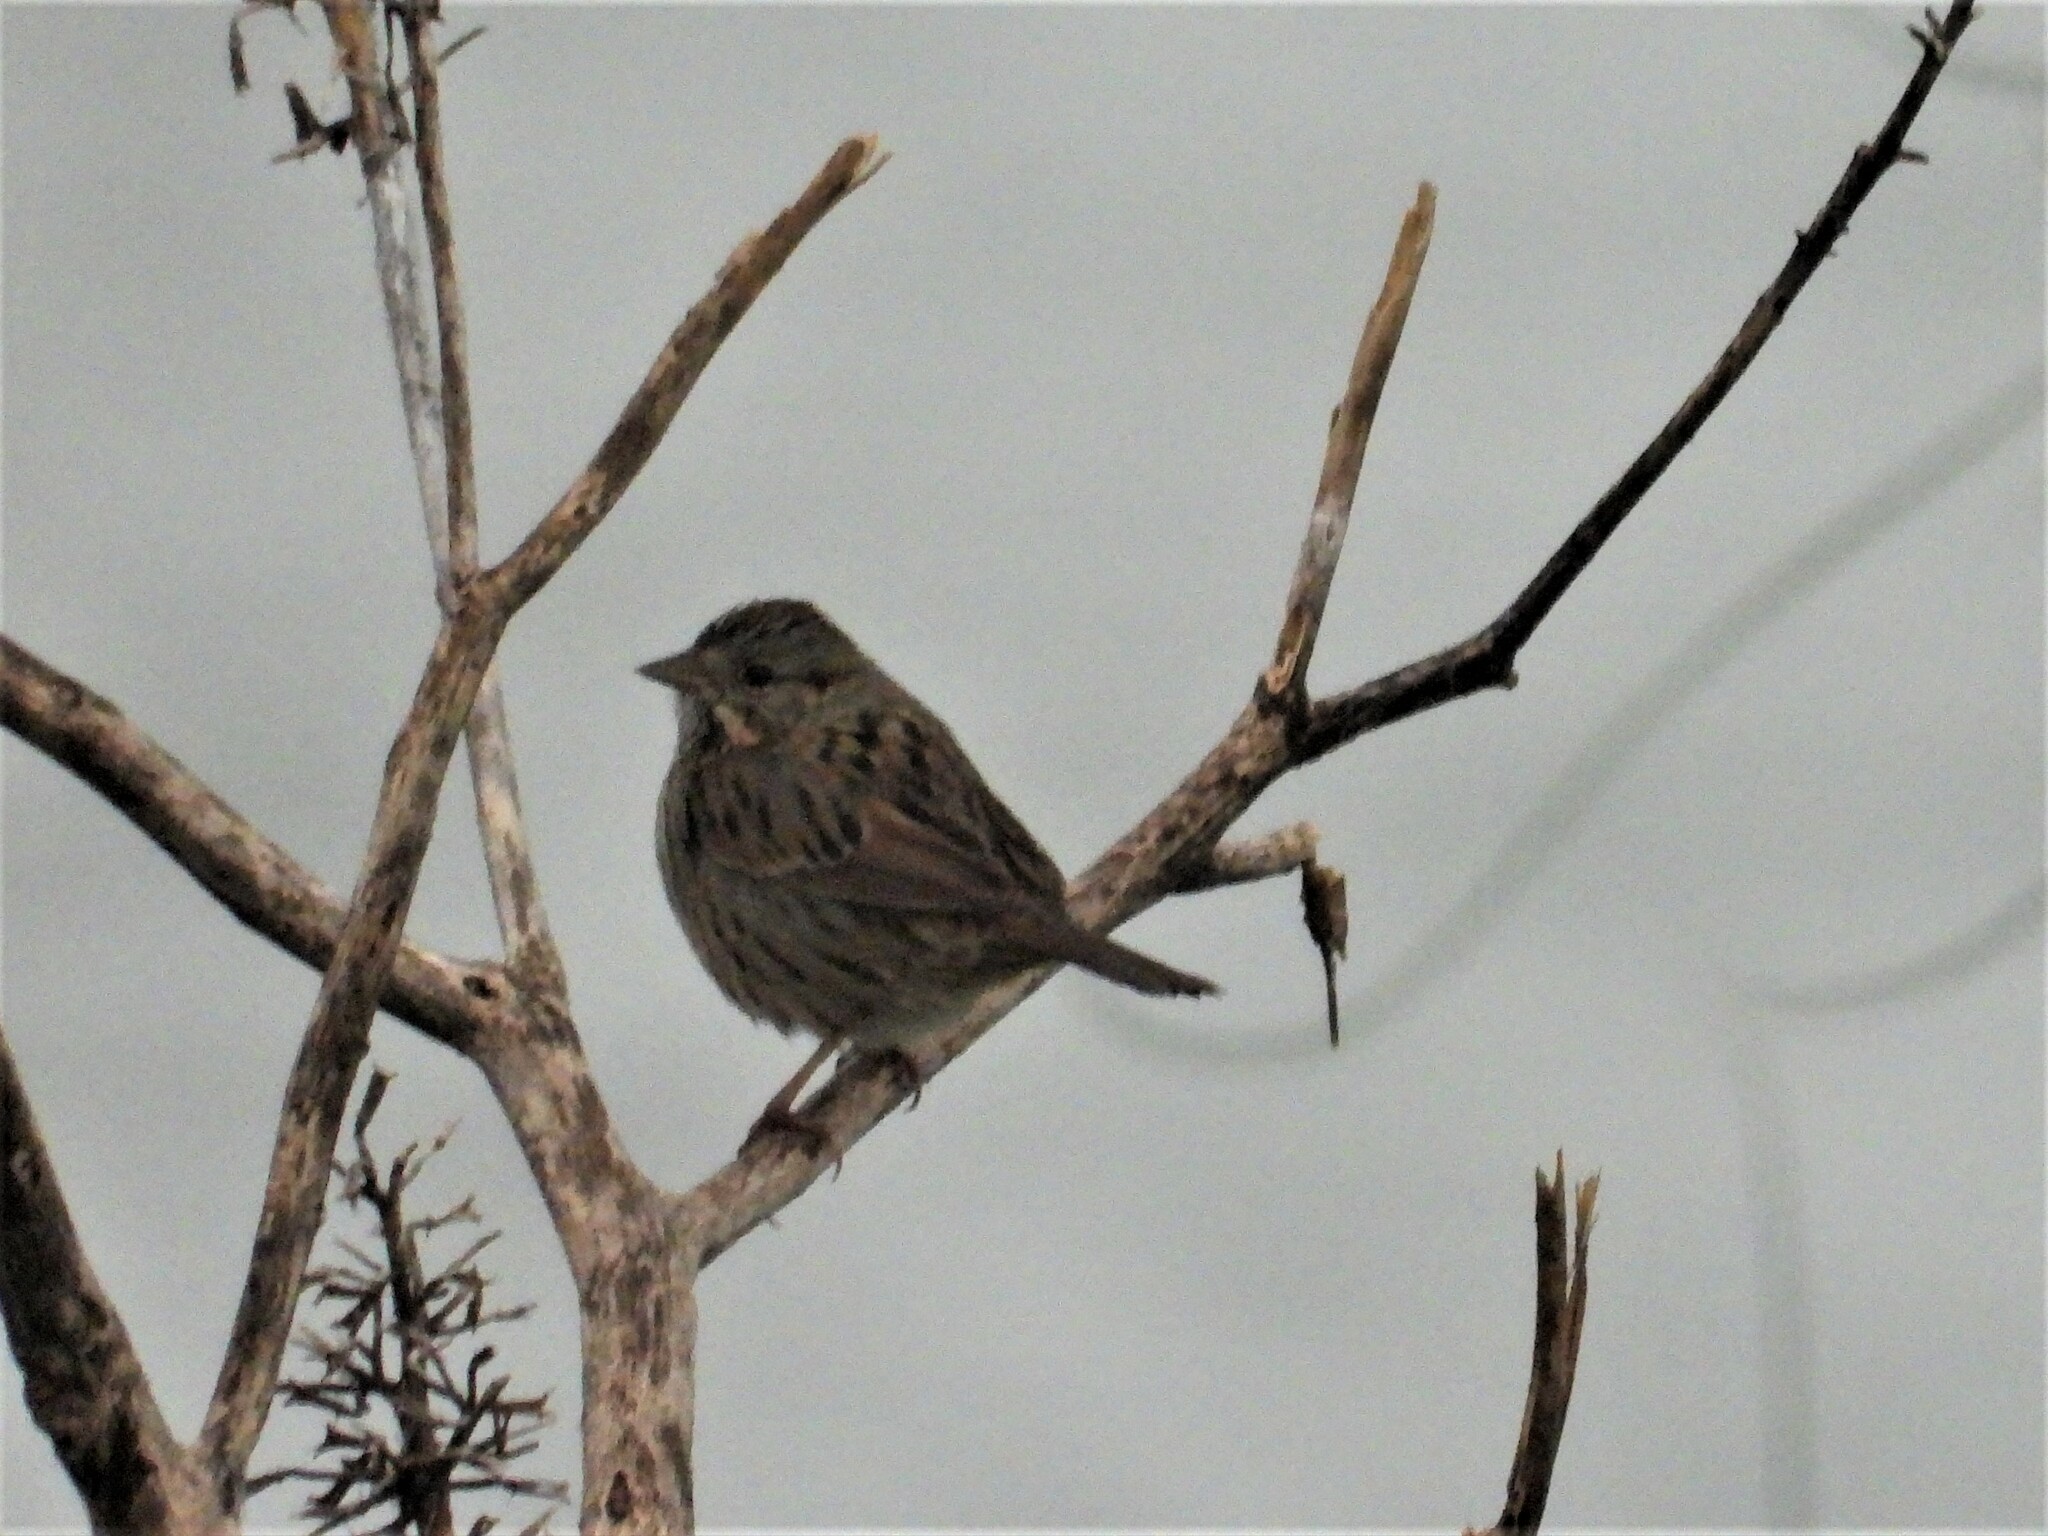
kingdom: Animalia
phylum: Chordata
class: Aves
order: Passeriformes
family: Passerellidae
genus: Melospiza
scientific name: Melospiza lincolnii
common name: Lincoln's sparrow
